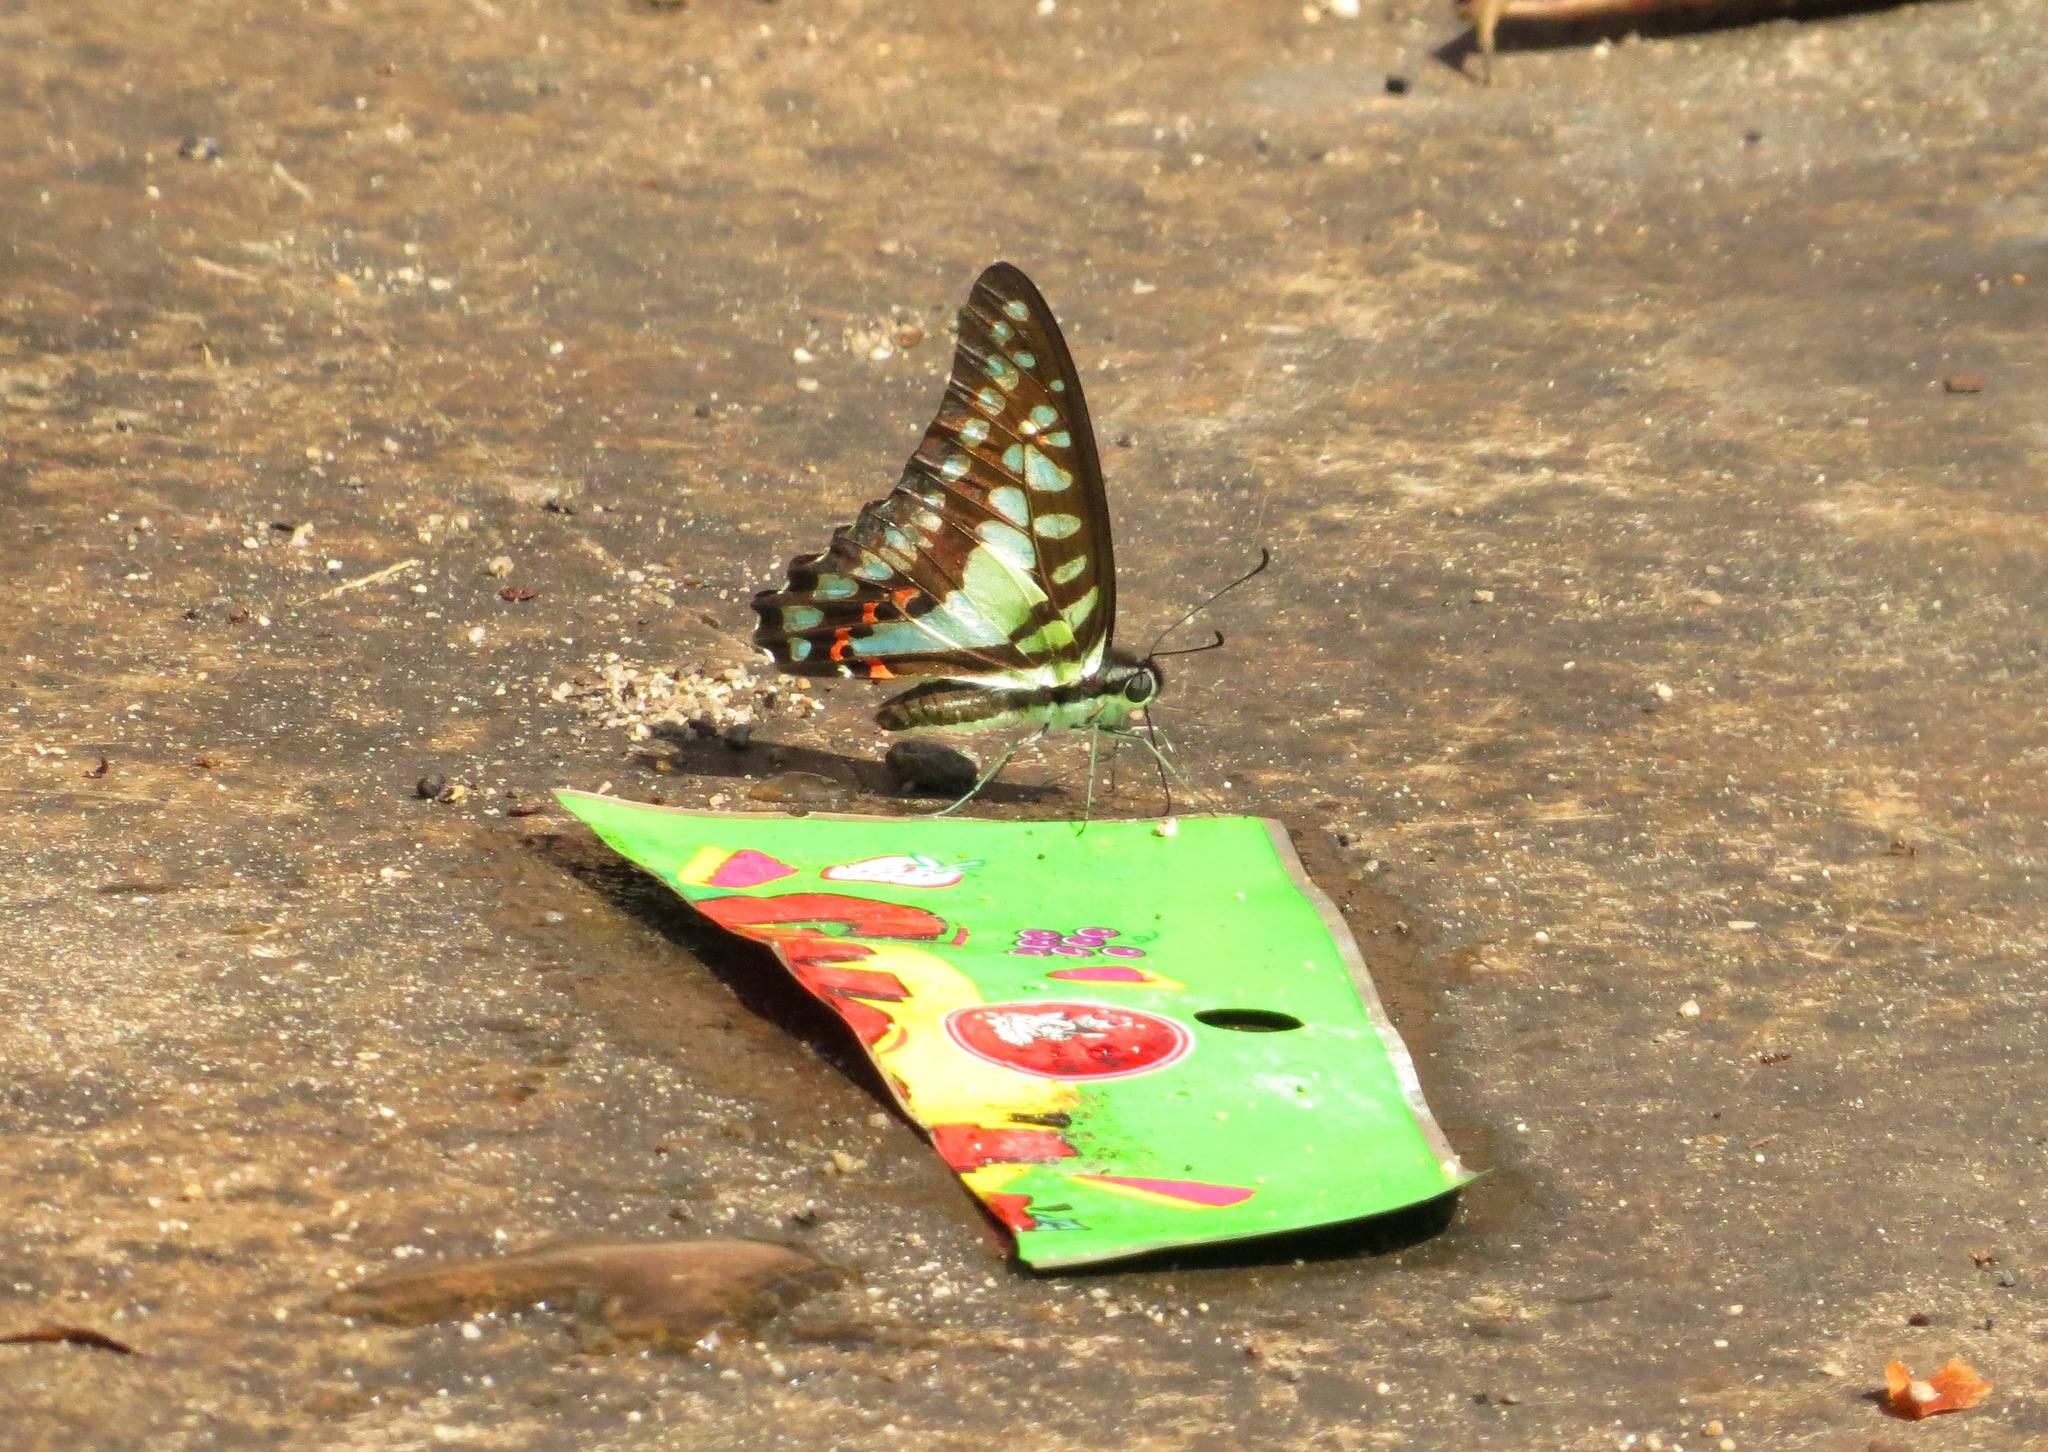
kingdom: Animalia
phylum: Arthropoda
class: Insecta
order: Lepidoptera
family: Papilionidae
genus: Graphium
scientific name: Graphium evemon
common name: Lesser jay
